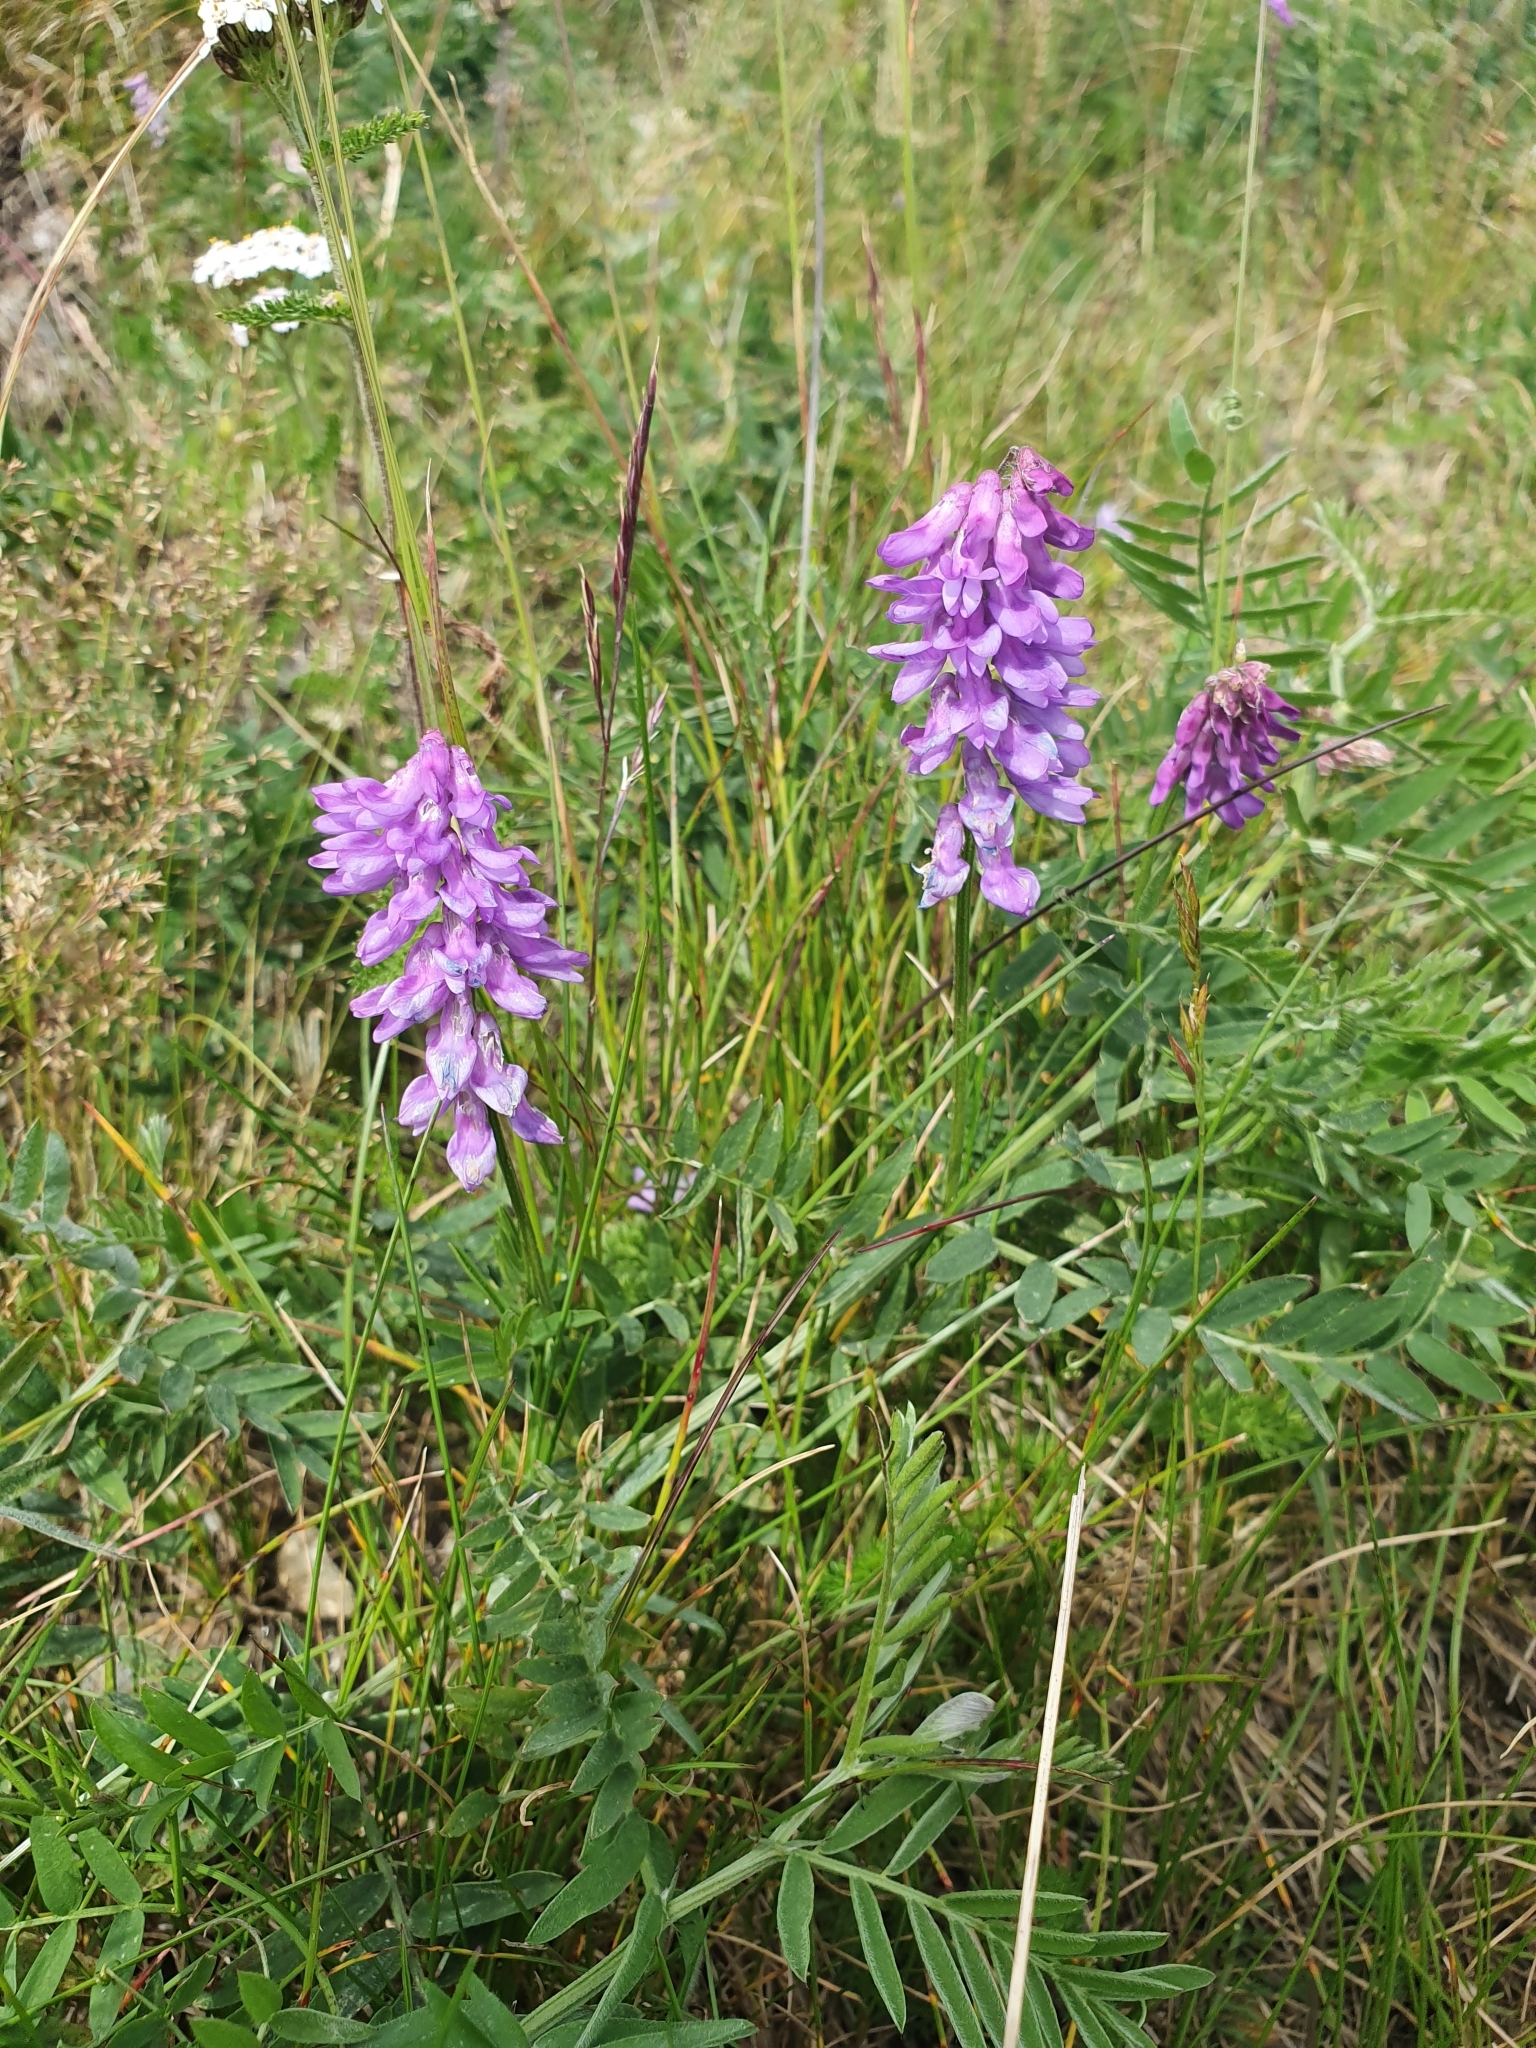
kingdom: Plantae
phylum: Tracheophyta
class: Magnoliopsida
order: Fabales
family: Fabaceae
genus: Vicia
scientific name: Vicia cracca
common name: Bird vetch
